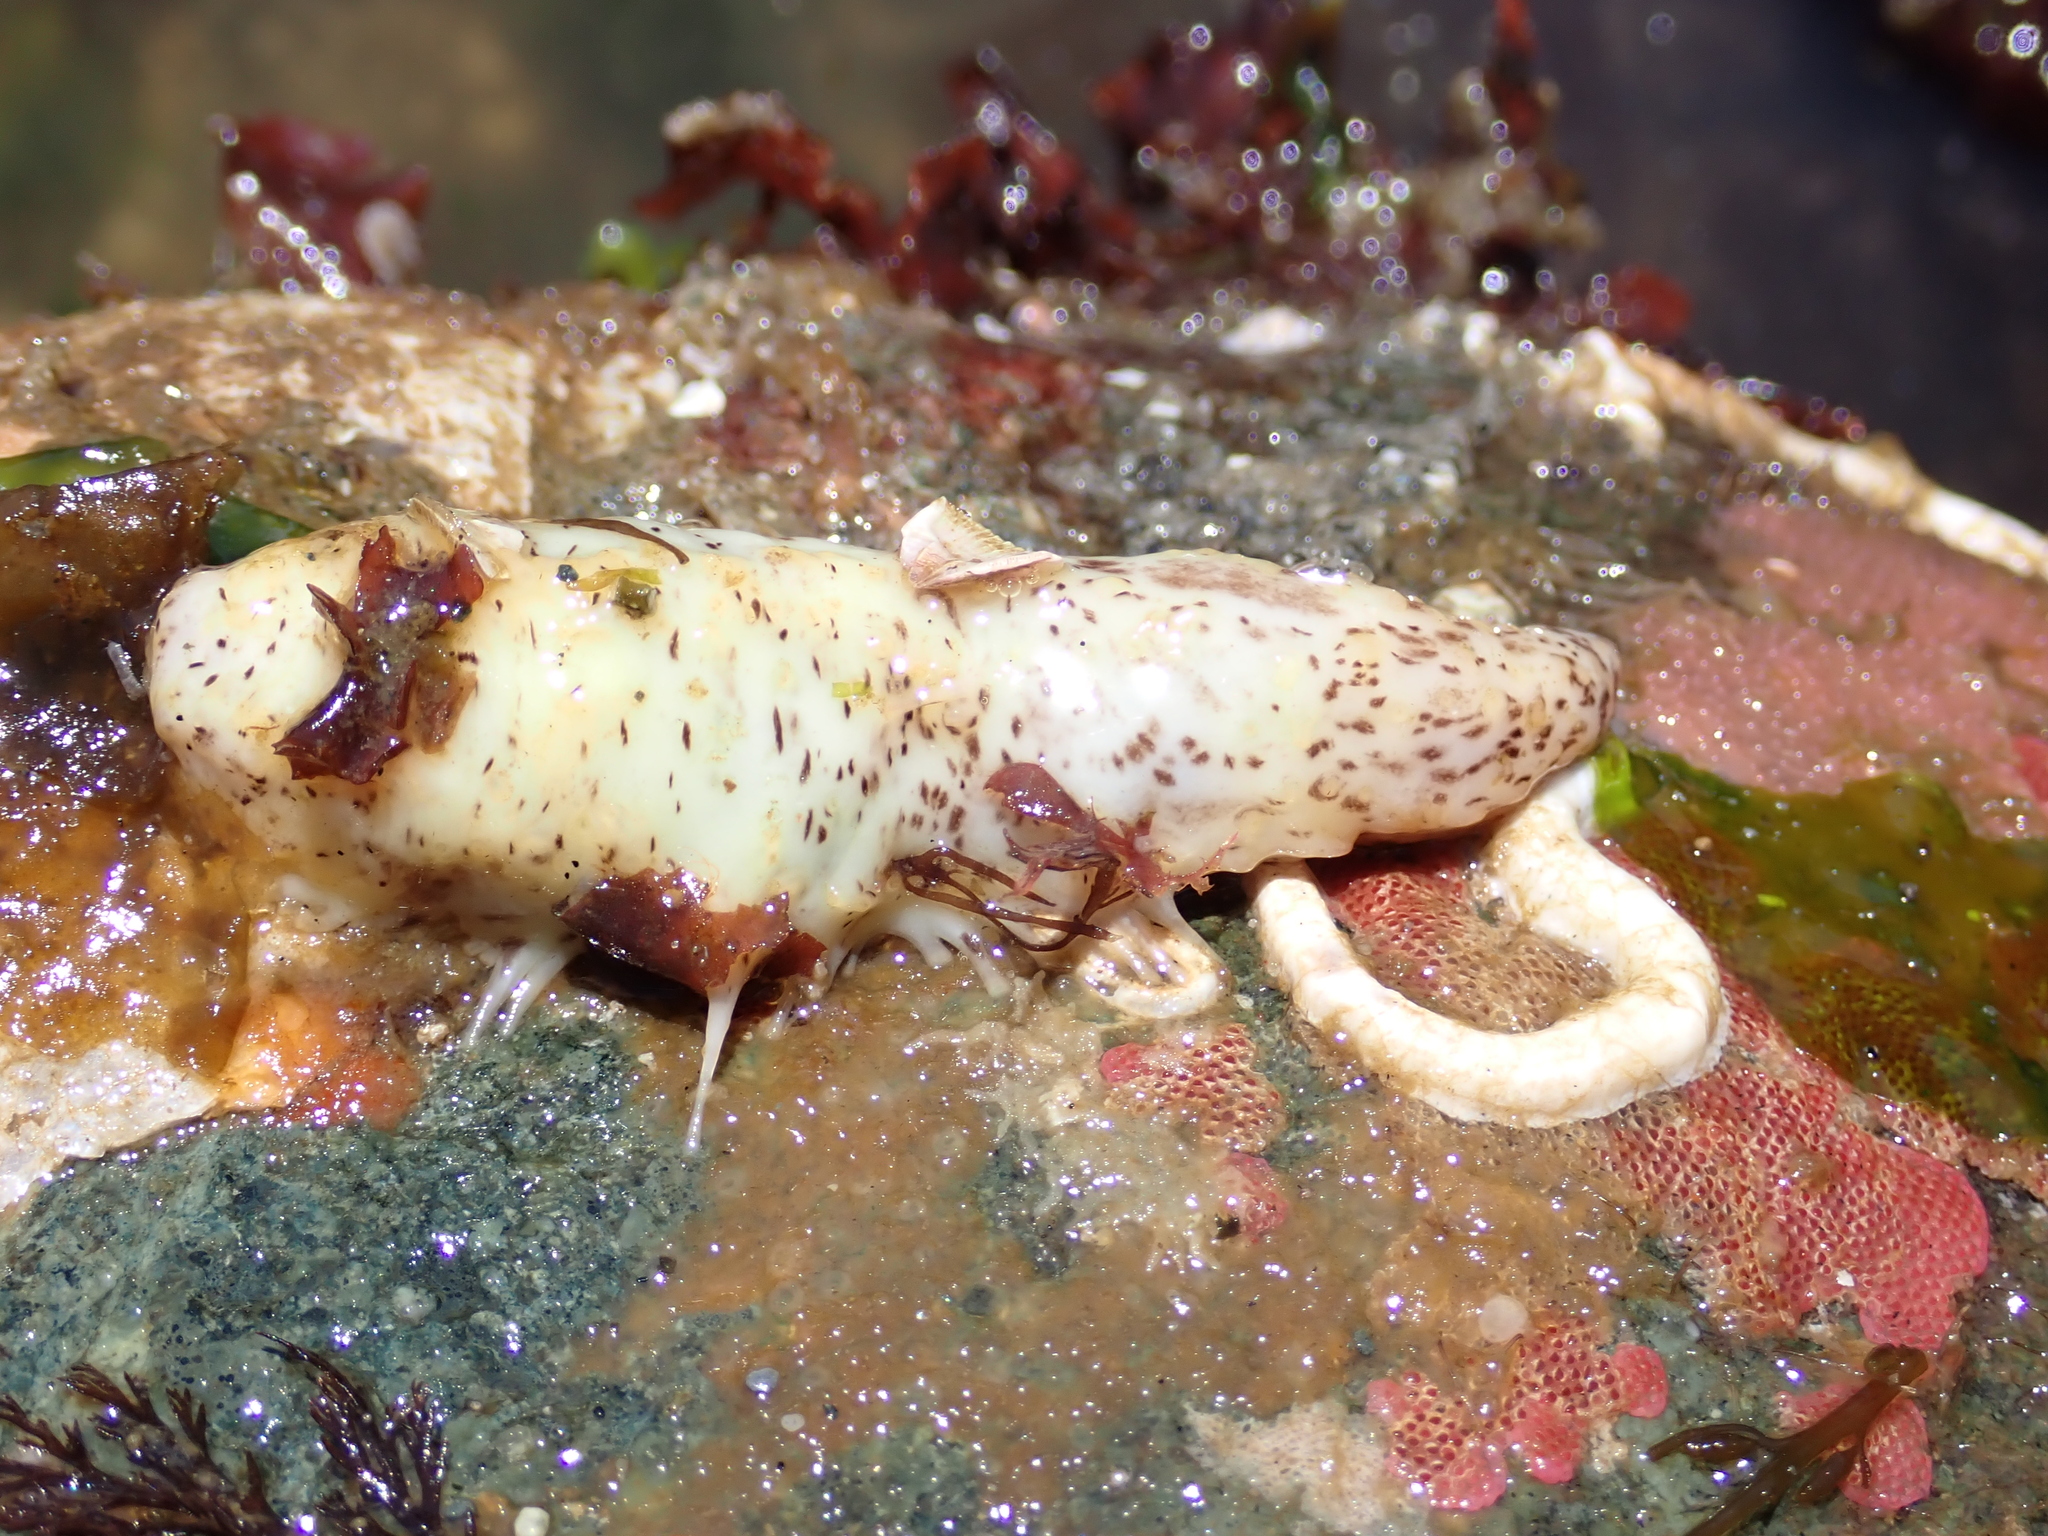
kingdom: Animalia
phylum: Echinodermata
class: Holothuroidea
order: Dendrochirotida
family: Cucumariidae
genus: Cucumaria
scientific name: Cucumaria piperata
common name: Peppered sea cucumber
